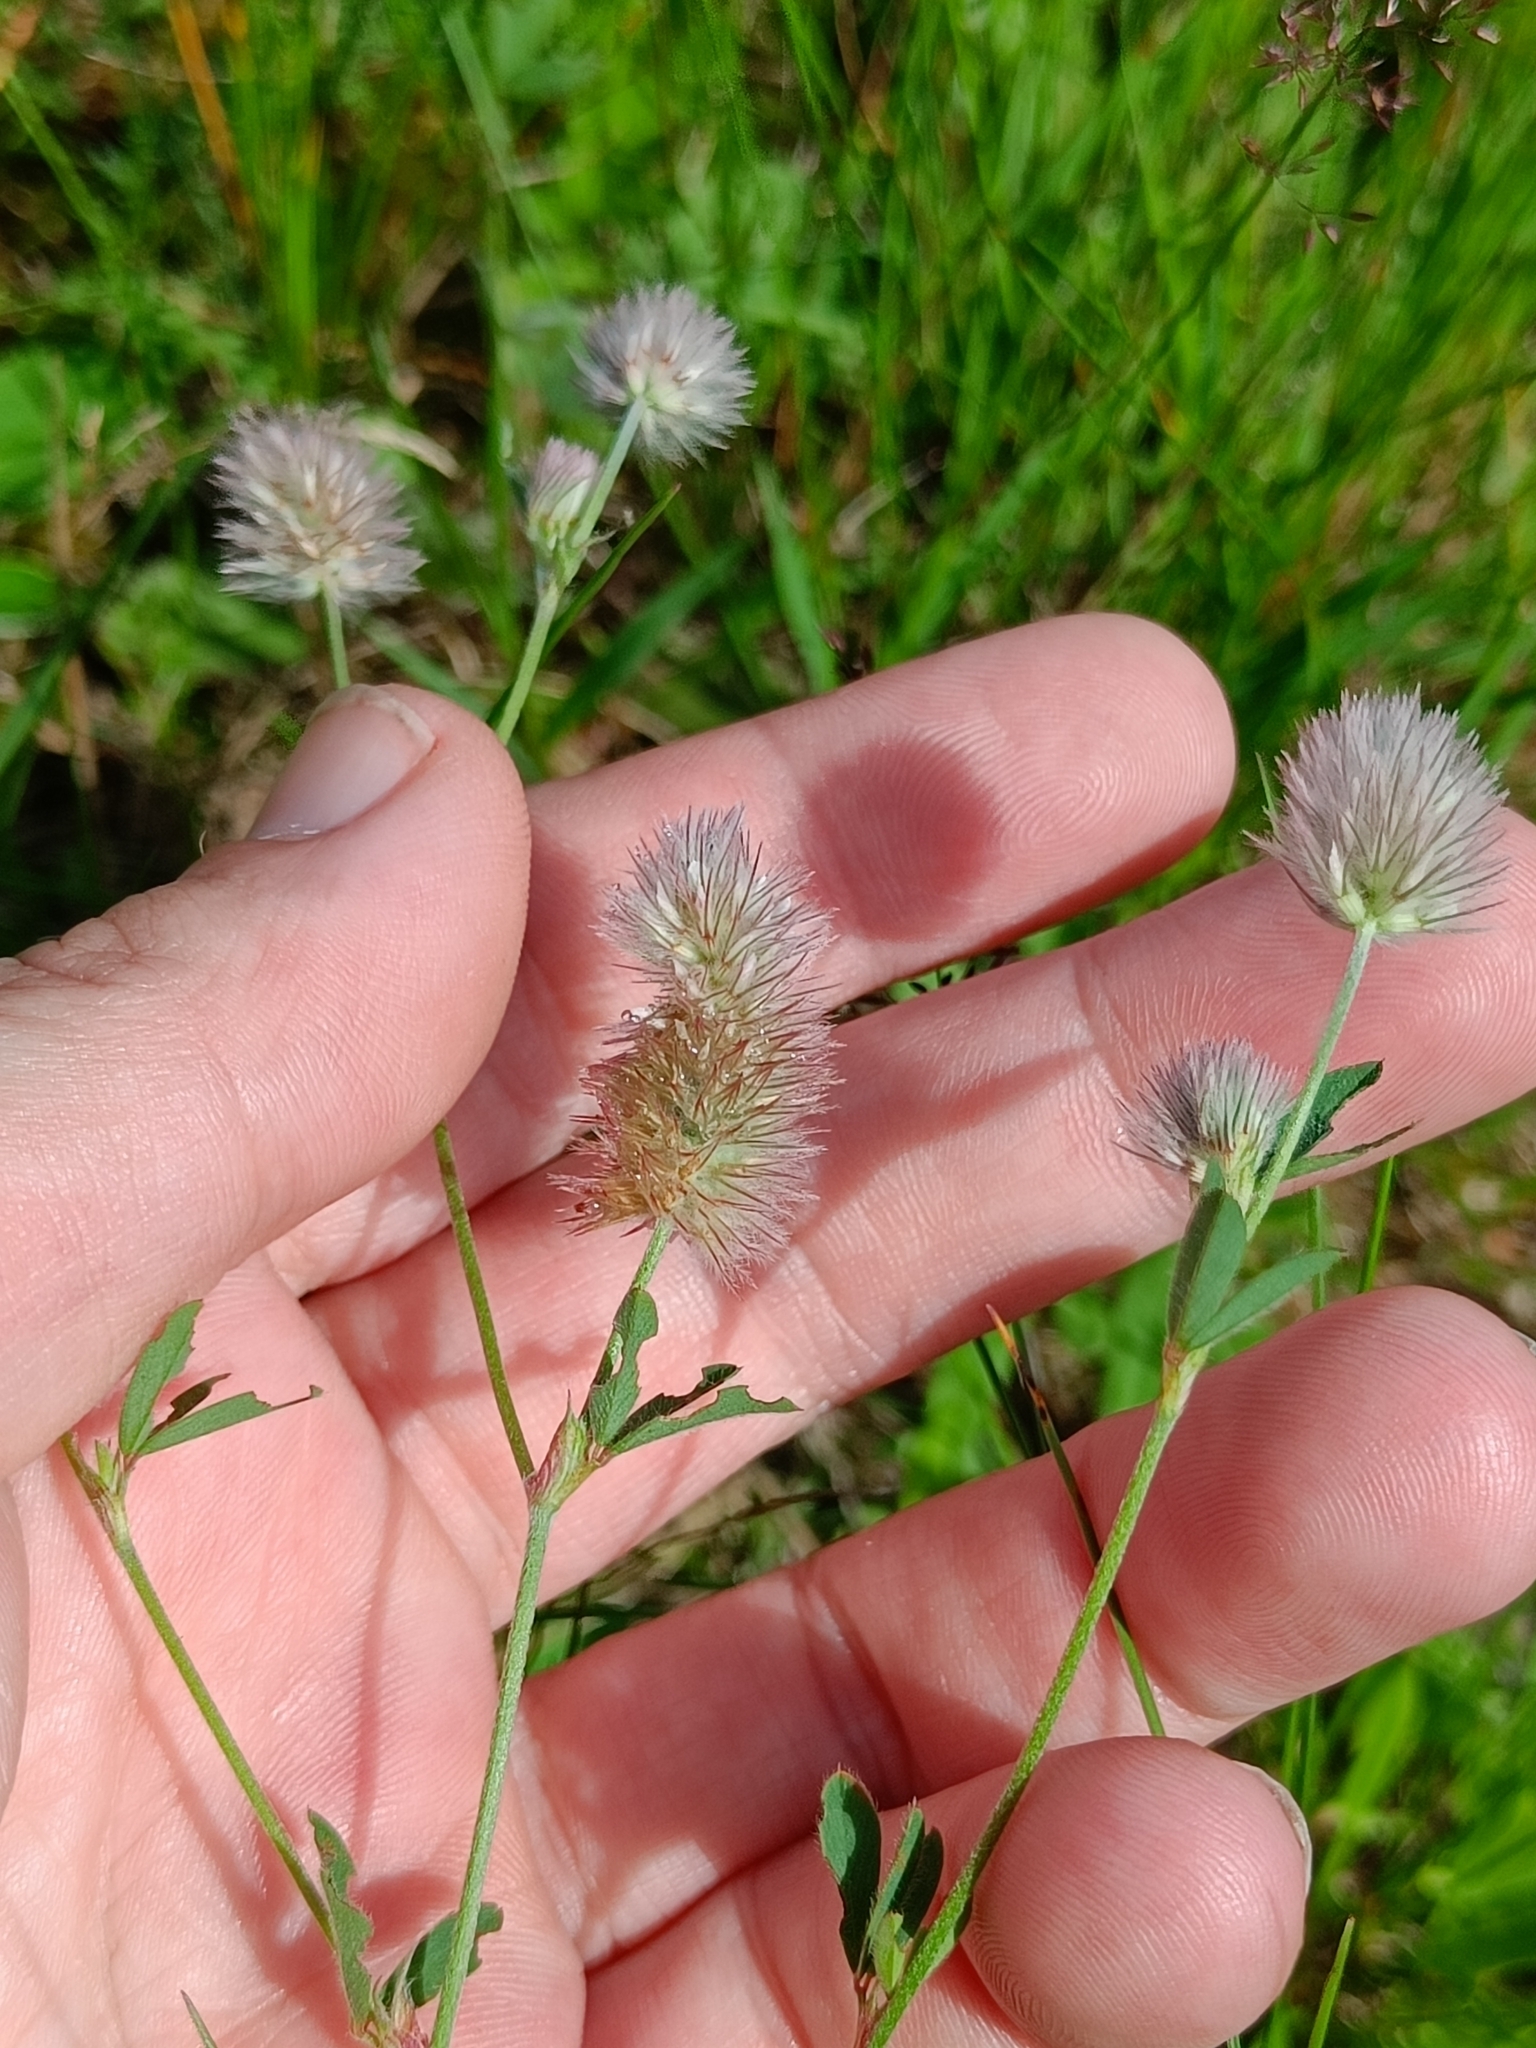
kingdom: Plantae
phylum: Tracheophyta
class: Magnoliopsida
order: Fabales
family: Fabaceae
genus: Trifolium
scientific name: Trifolium arvense
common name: Hare's-foot clover
